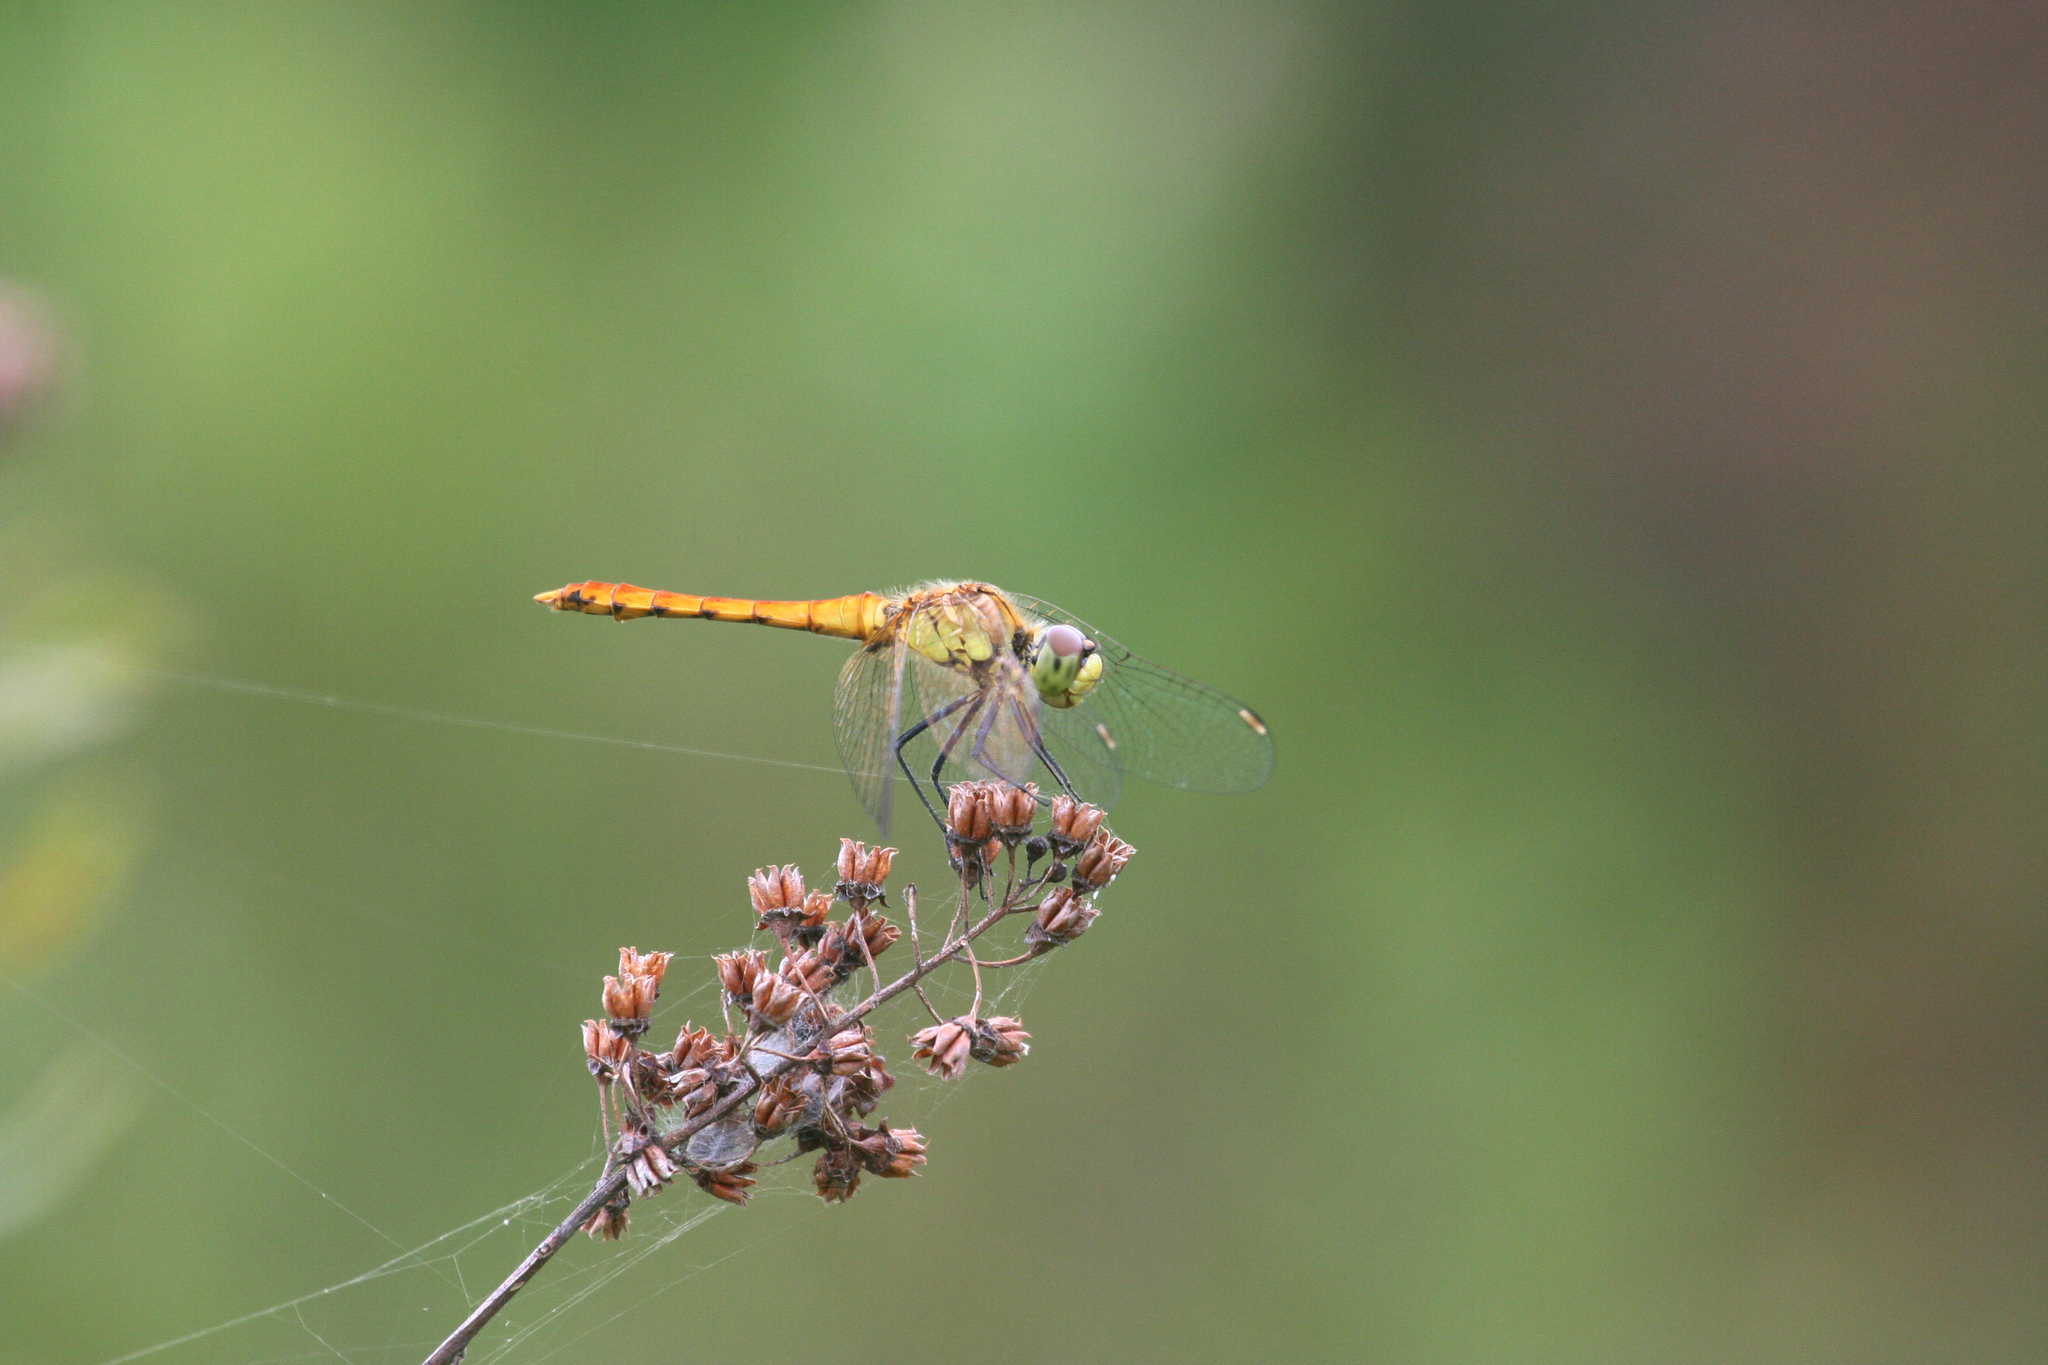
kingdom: Animalia
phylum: Arthropoda
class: Insecta
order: Odonata
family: Libellulidae
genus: Sympetrum
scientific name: Sympetrum cordulegaster
